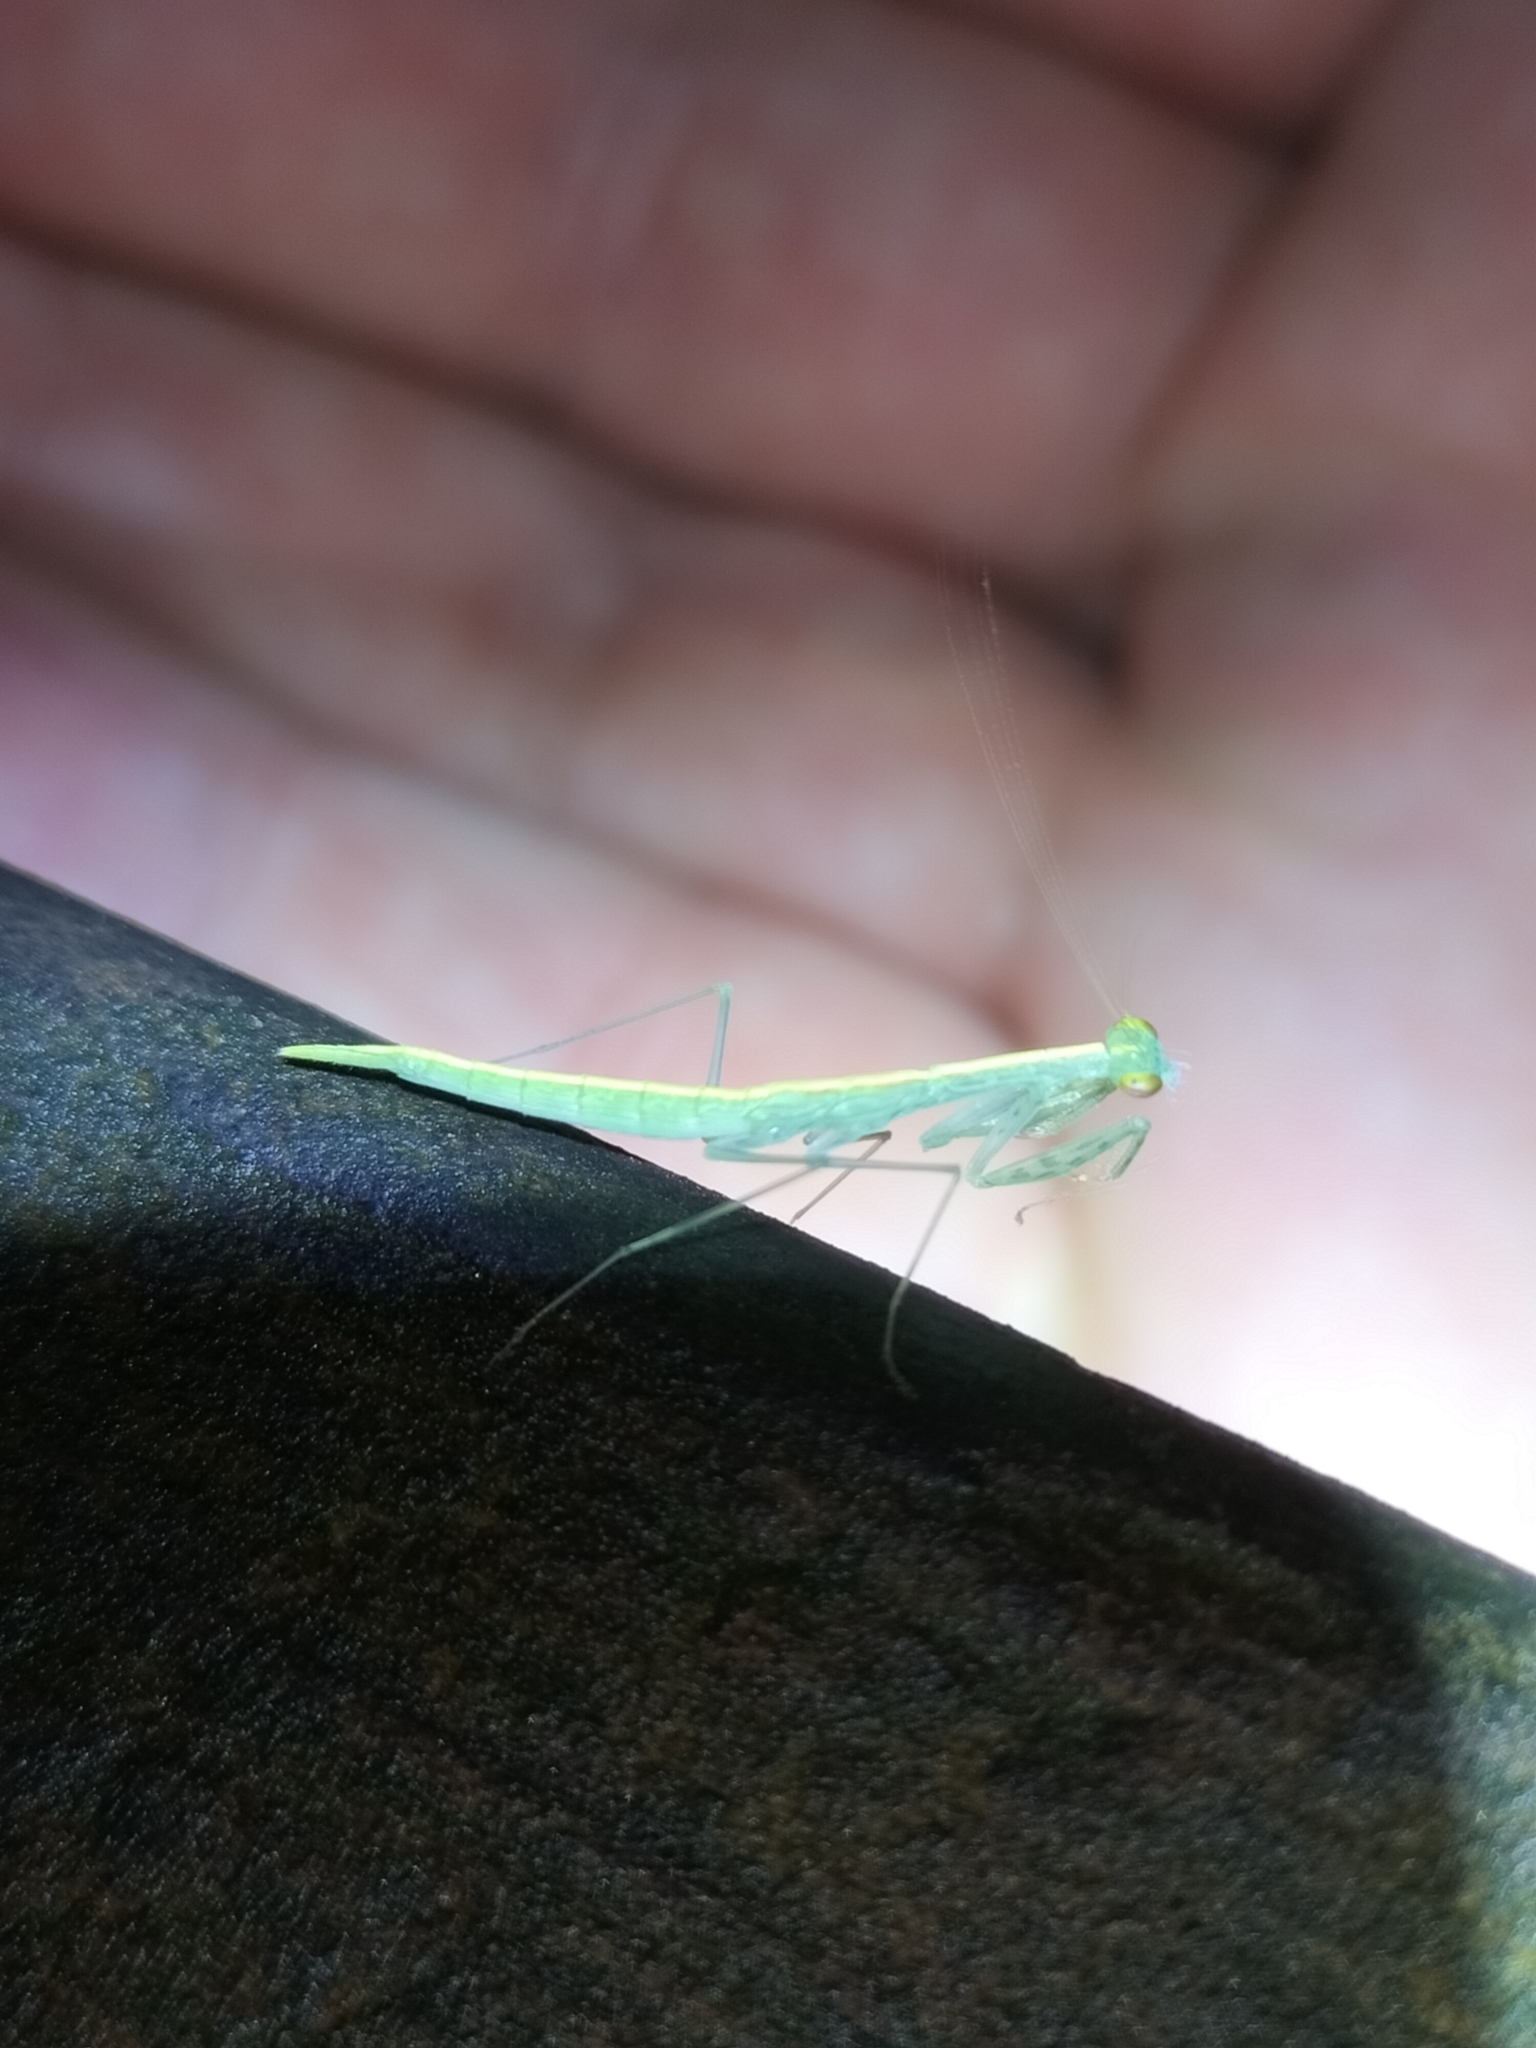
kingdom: Animalia
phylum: Arthropoda
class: Insecta
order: Mantodea
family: Nanomantidae
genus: Kongobatha
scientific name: Kongobatha diademata
